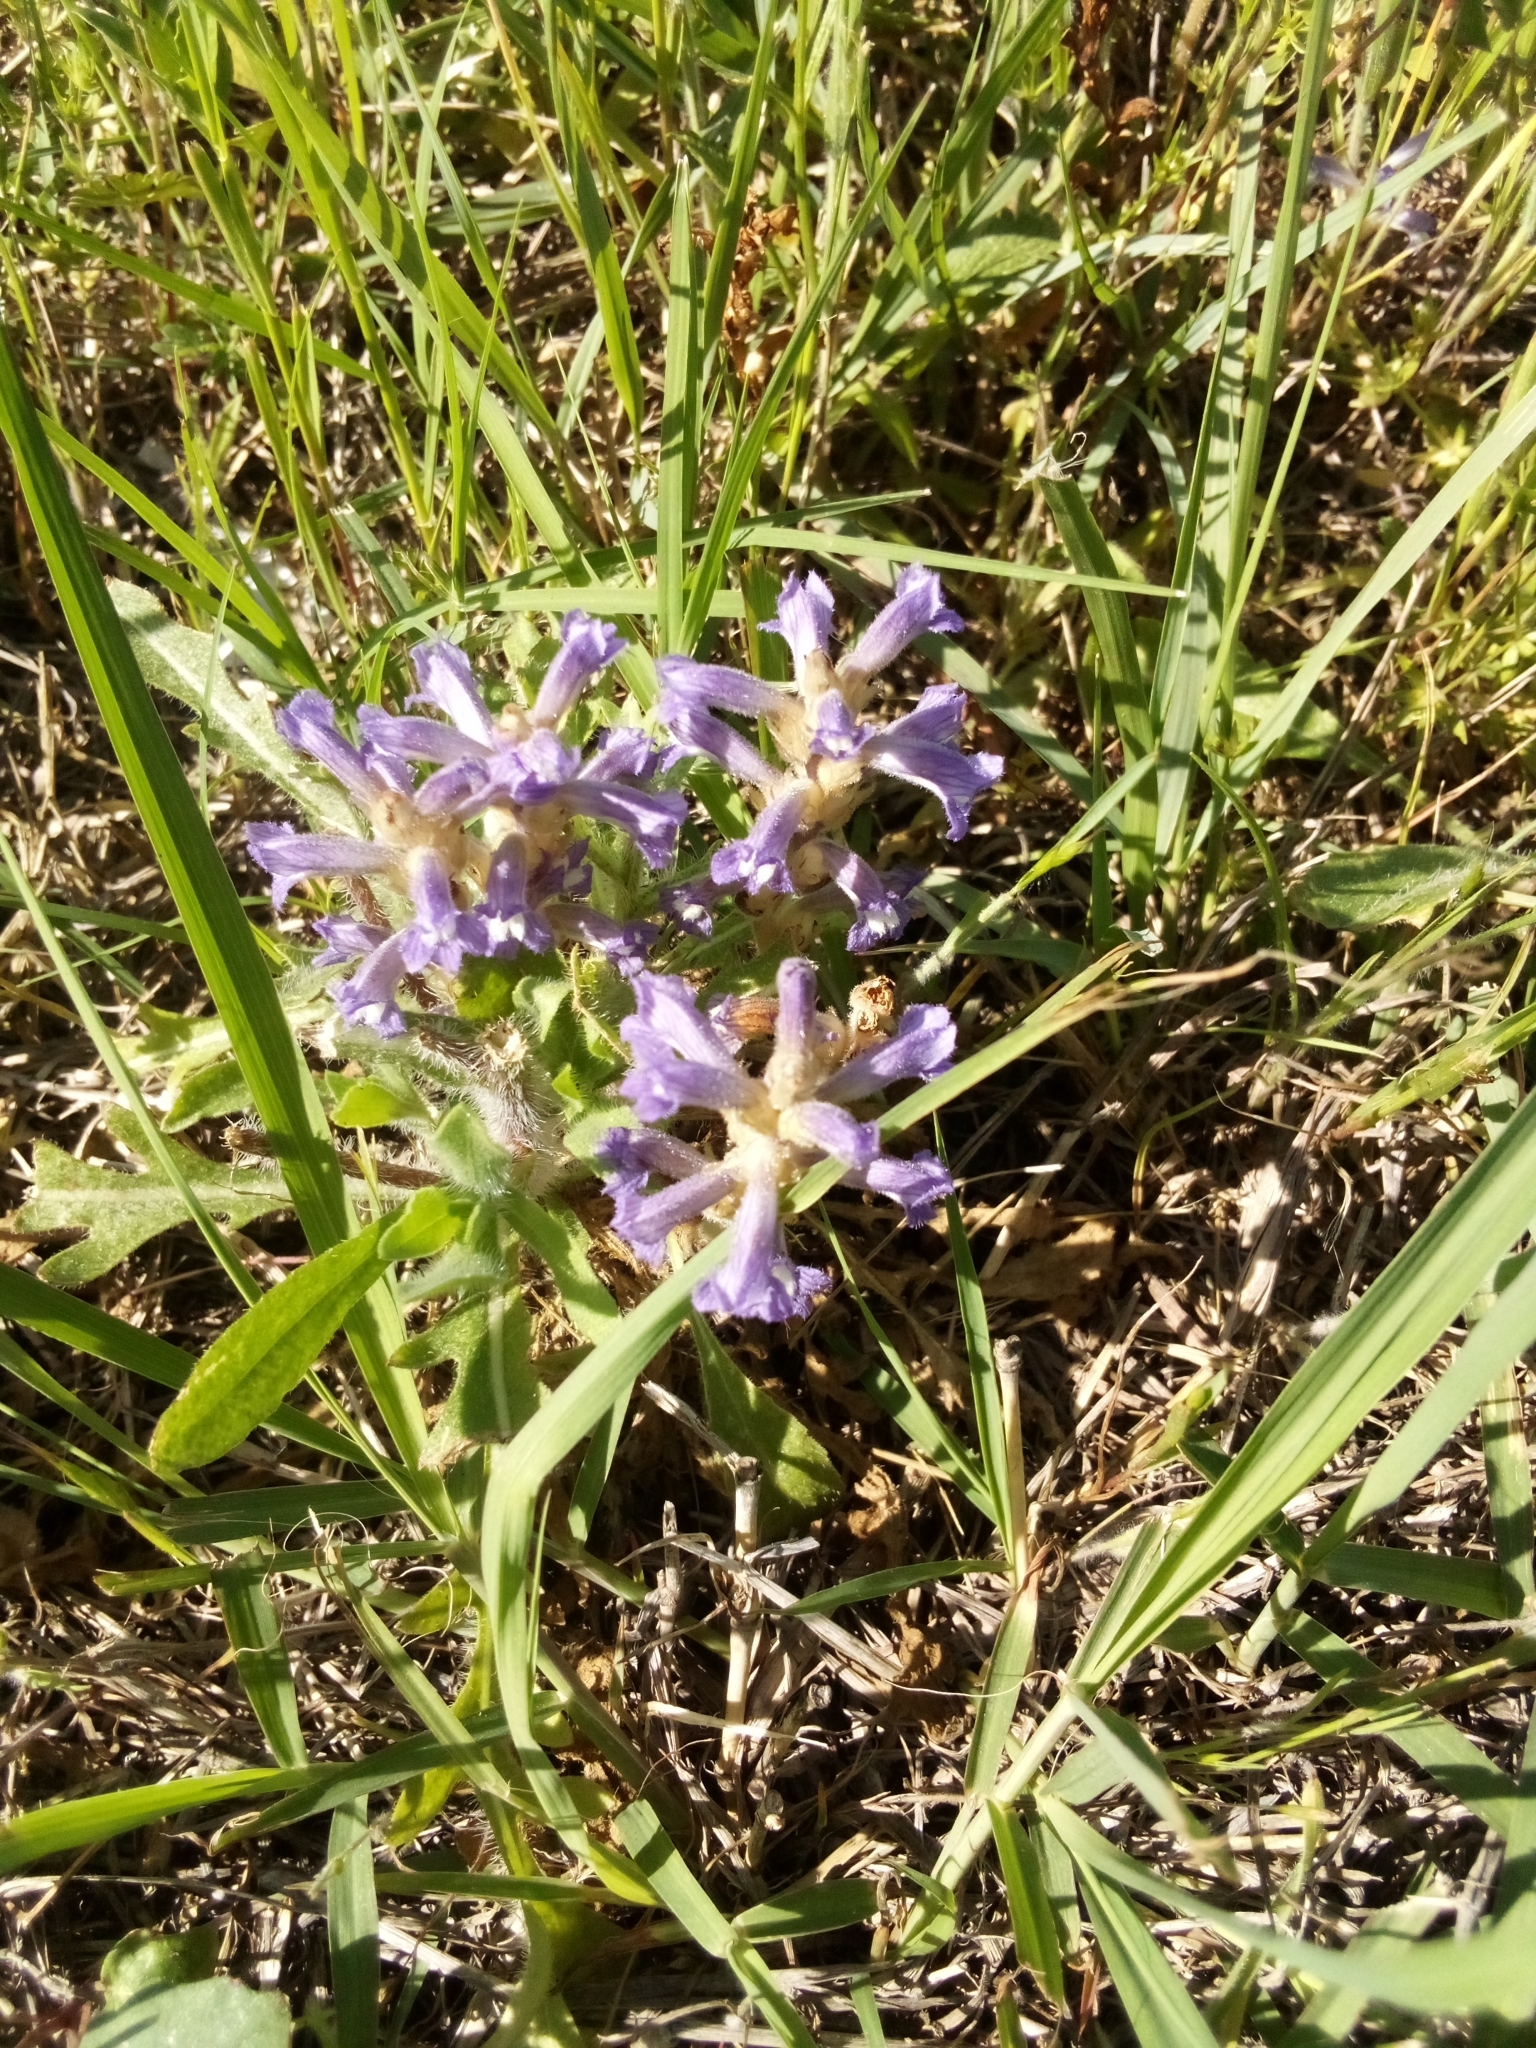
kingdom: Plantae
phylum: Tracheophyta
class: Magnoliopsida
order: Lamiales
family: Orobanchaceae
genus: Phelipanche
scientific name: Phelipanche mutelii
